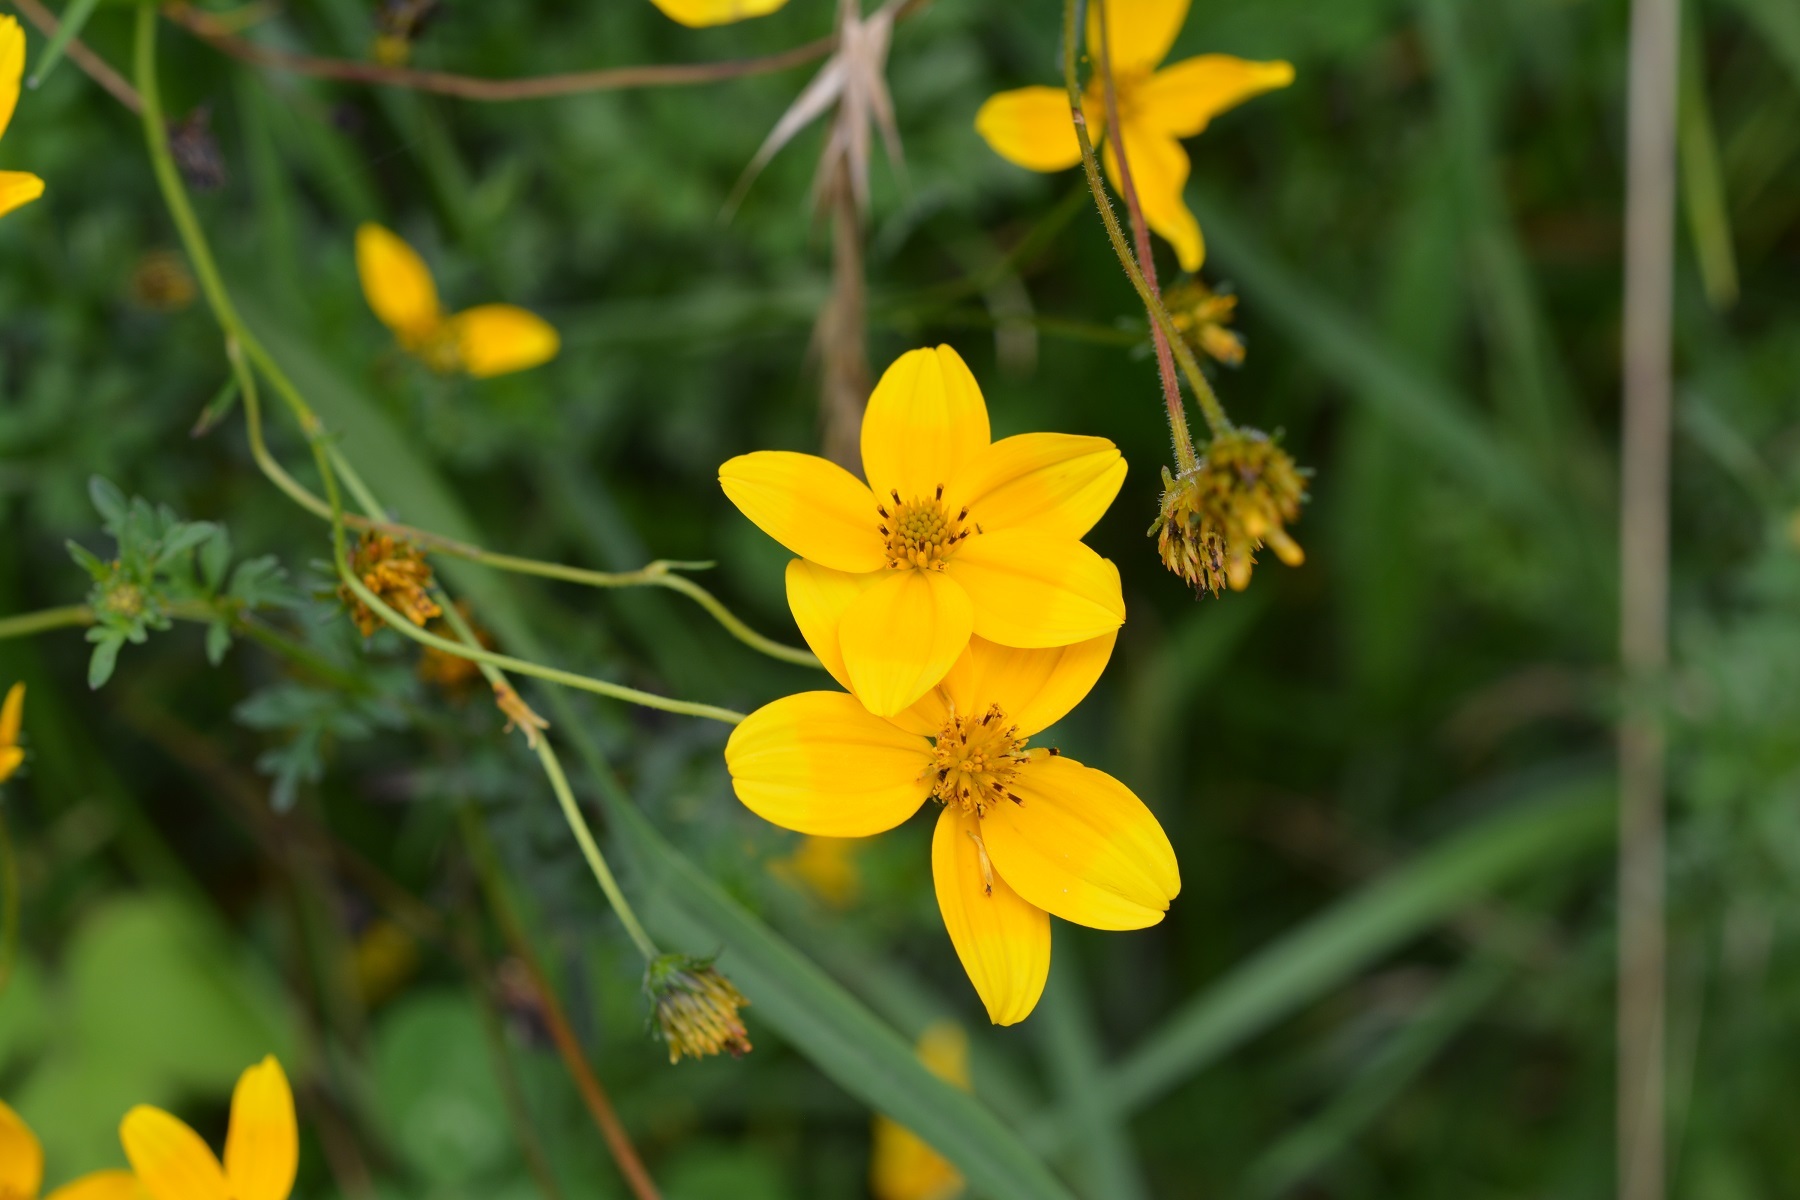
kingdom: Plantae
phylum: Tracheophyta
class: Magnoliopsida
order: Asterales
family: Asteraceae
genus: Bidens
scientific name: Bidens triplinervia
